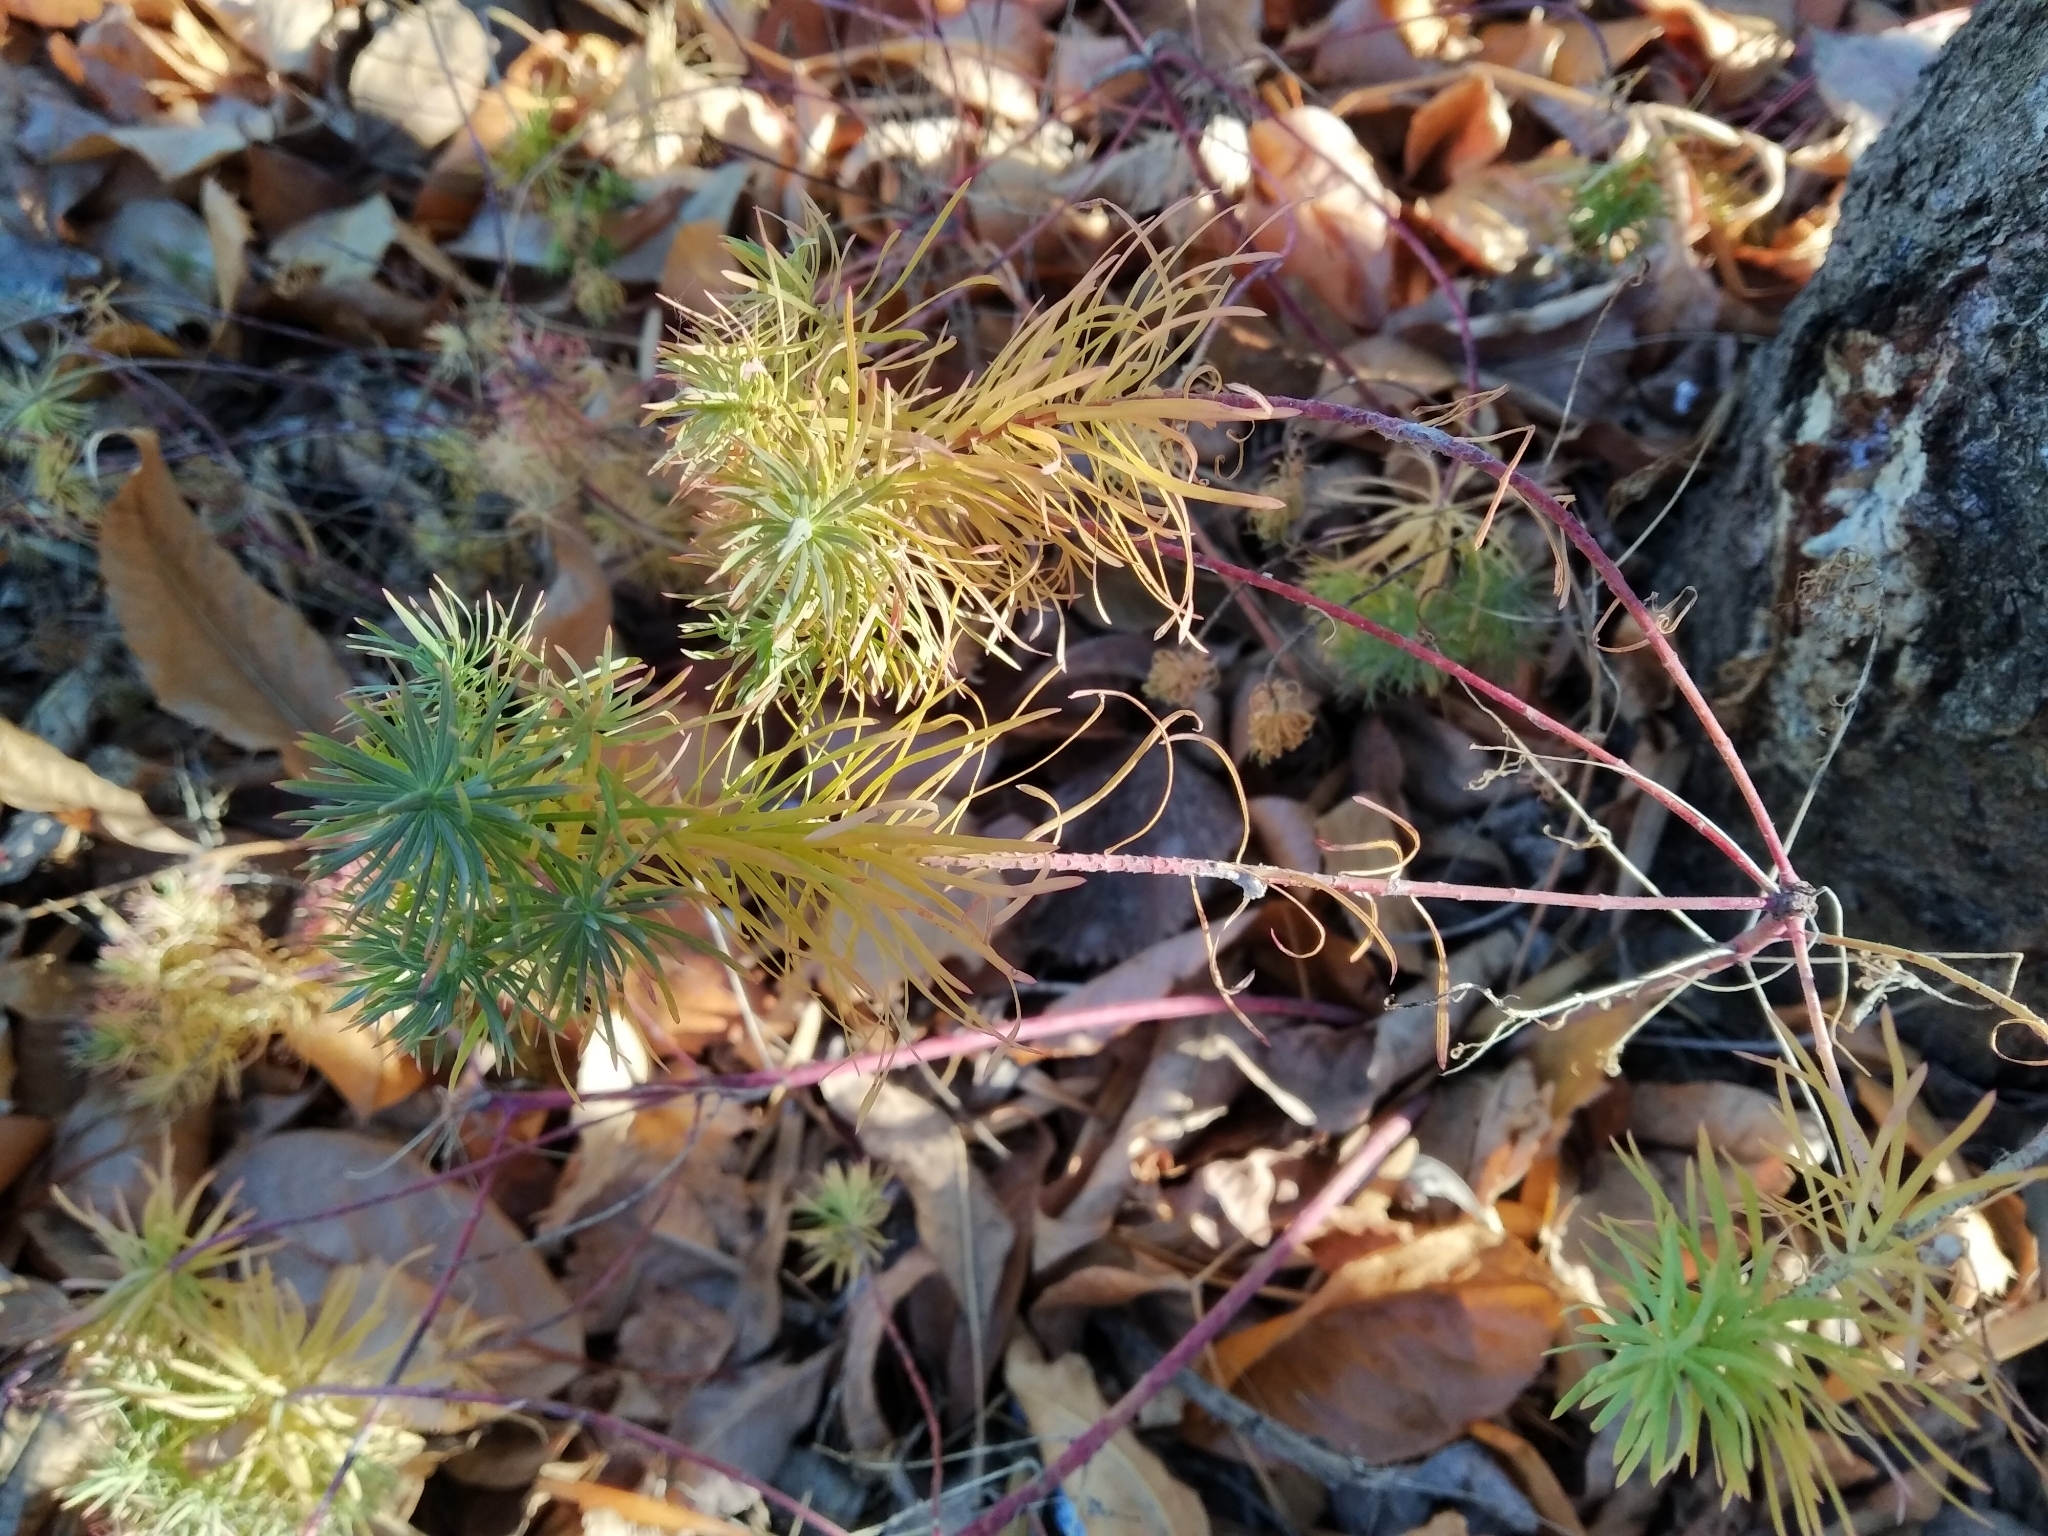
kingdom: Plantae
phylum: Tracheophyta
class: Magnoliopsida
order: Malpighiales
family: Euphorbiaceae
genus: Euphorbia
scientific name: Euphorbia cyparissias
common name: Cypress spurge
